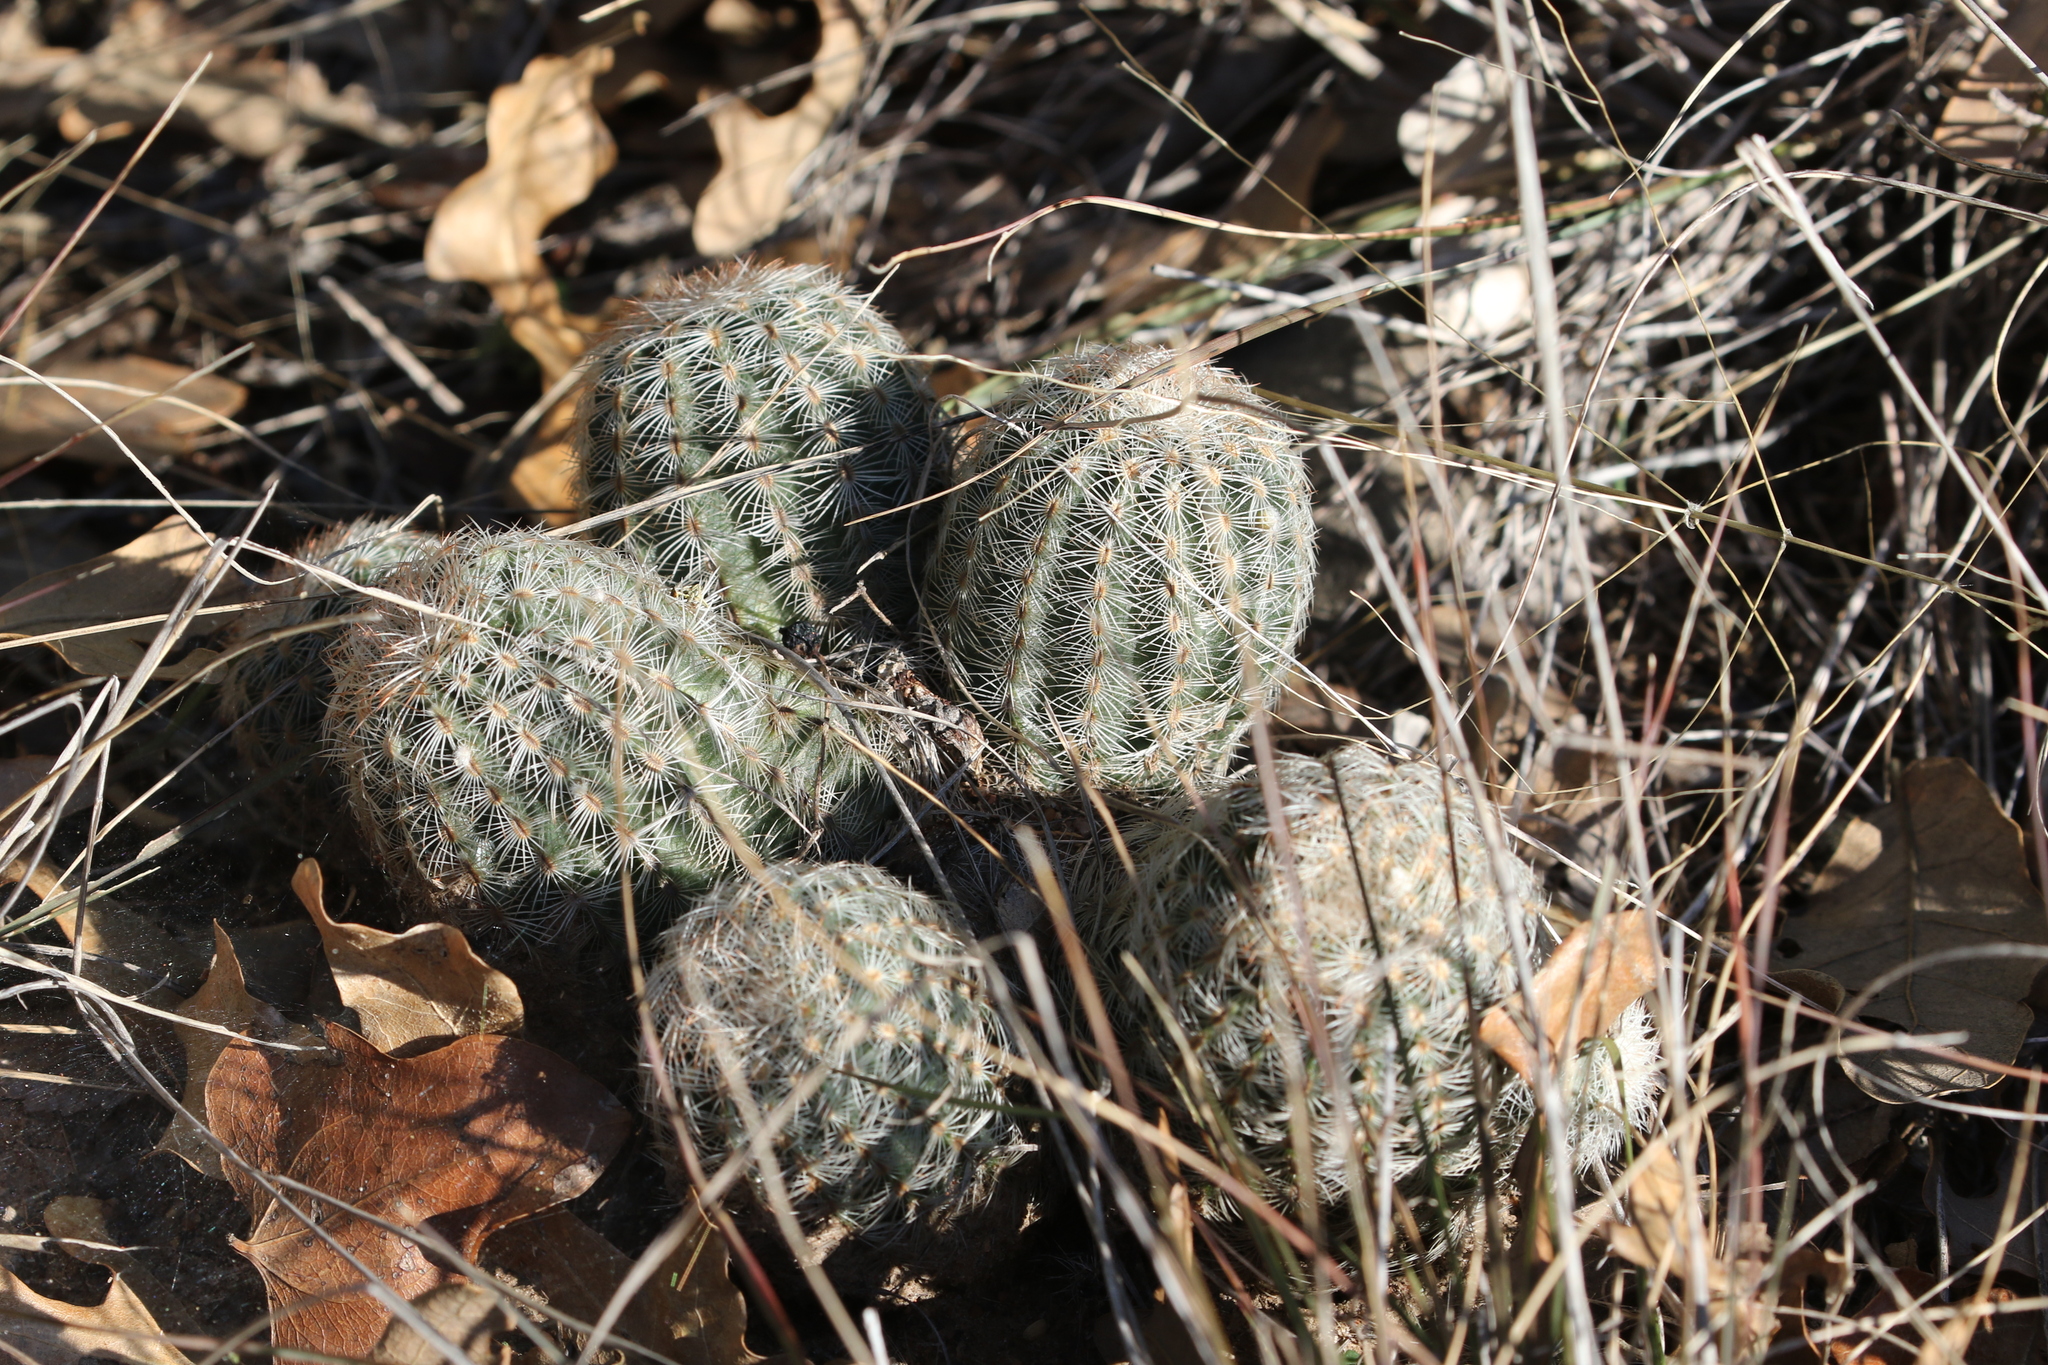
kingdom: Plantae
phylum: Tracheophyta
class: Magnoliopsida
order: Caryophyllales
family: Cactaceae
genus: Echinocereus
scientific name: Echinocereus reichenbachii
